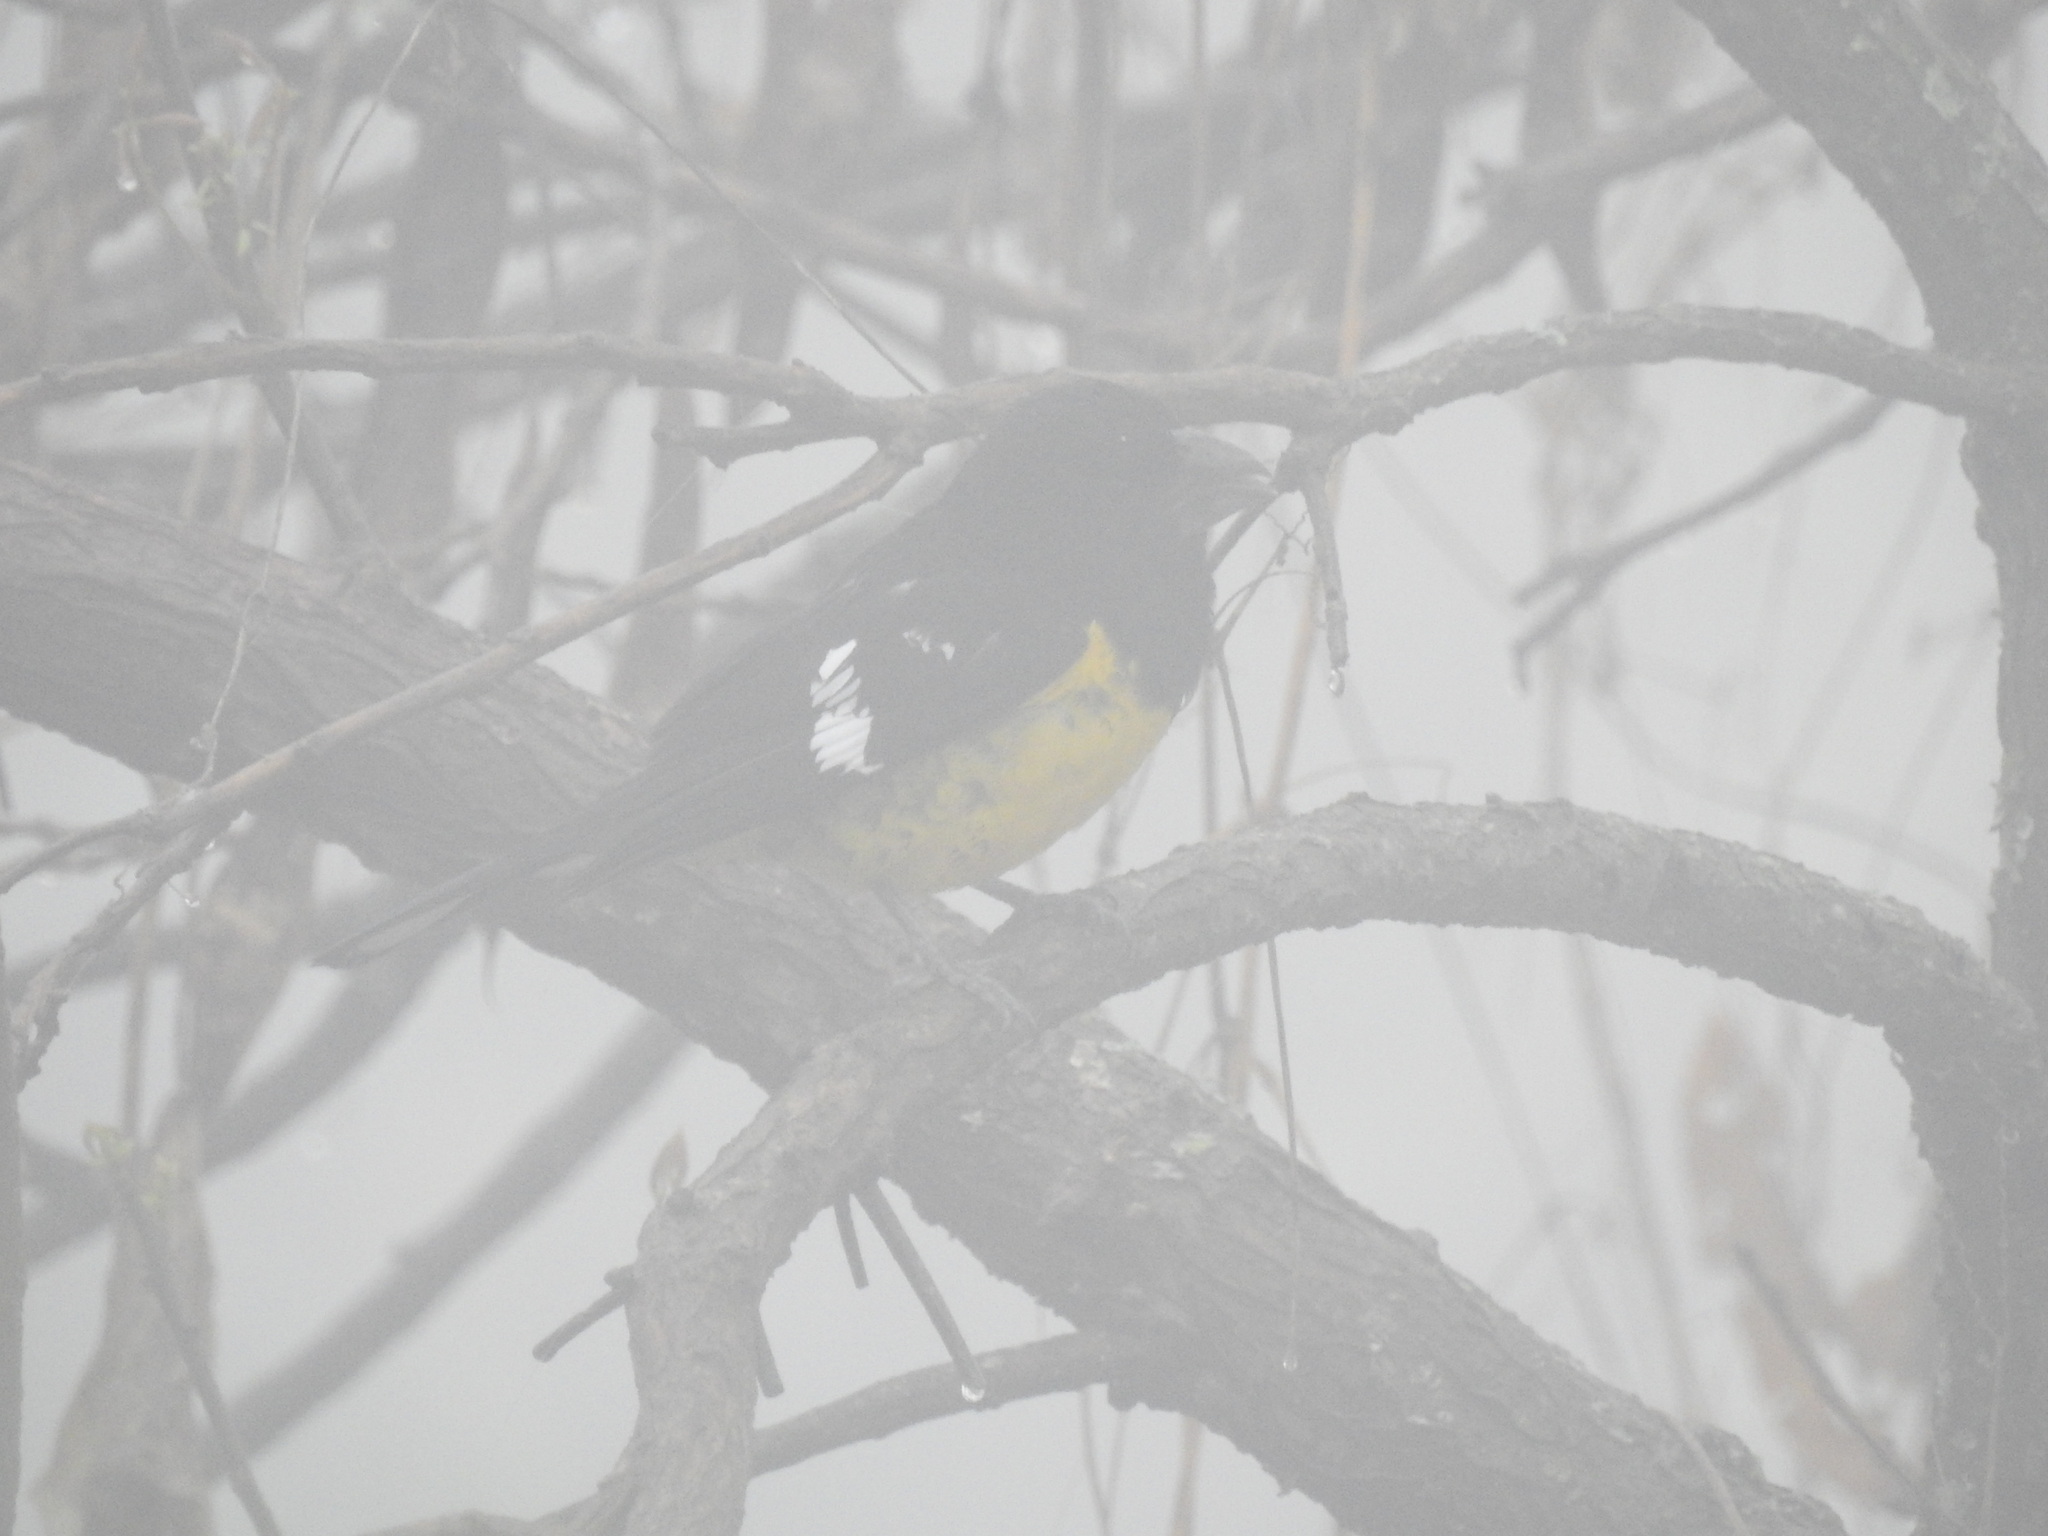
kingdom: Animalia
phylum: Chordata
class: Aves
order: Passeriformes
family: Cardinalidae
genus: Pheucticus
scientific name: Pheucticus aureoventris
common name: Black-backed grosbeak
